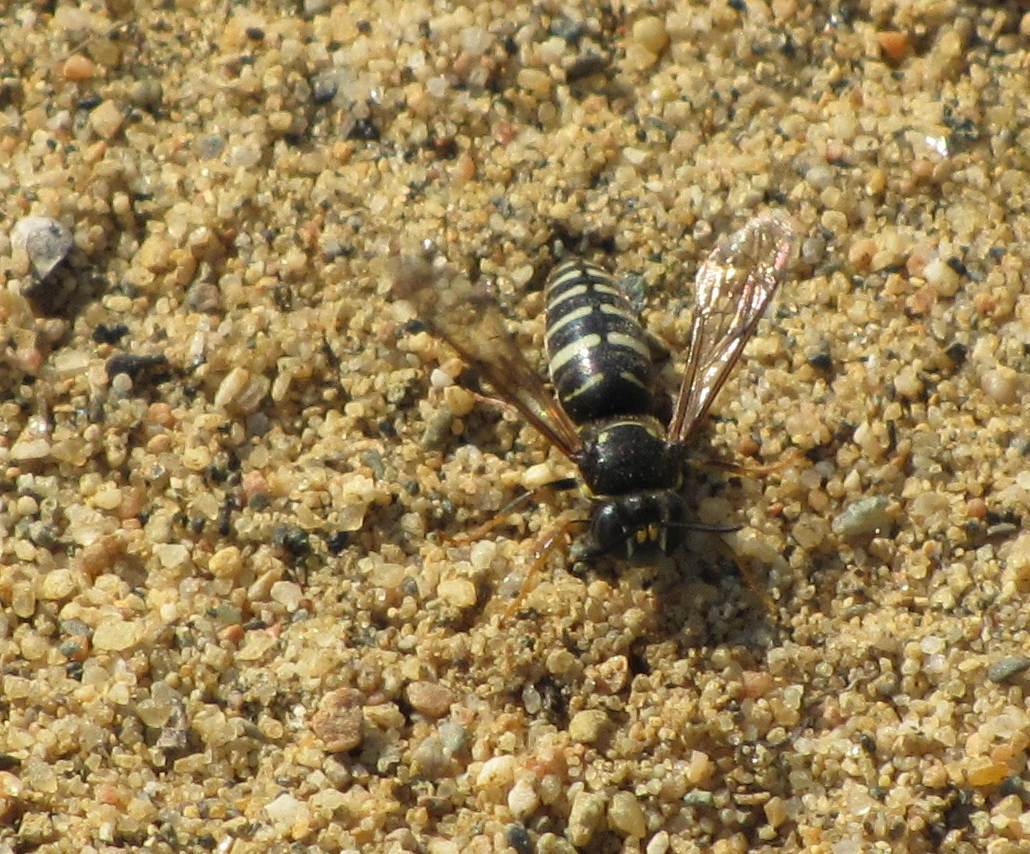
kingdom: Animalia
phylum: Arthropoda
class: Insecta
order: Hymenoptera
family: Crabronidae
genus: Bicyrtes
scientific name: Bicyrtes ventralis
